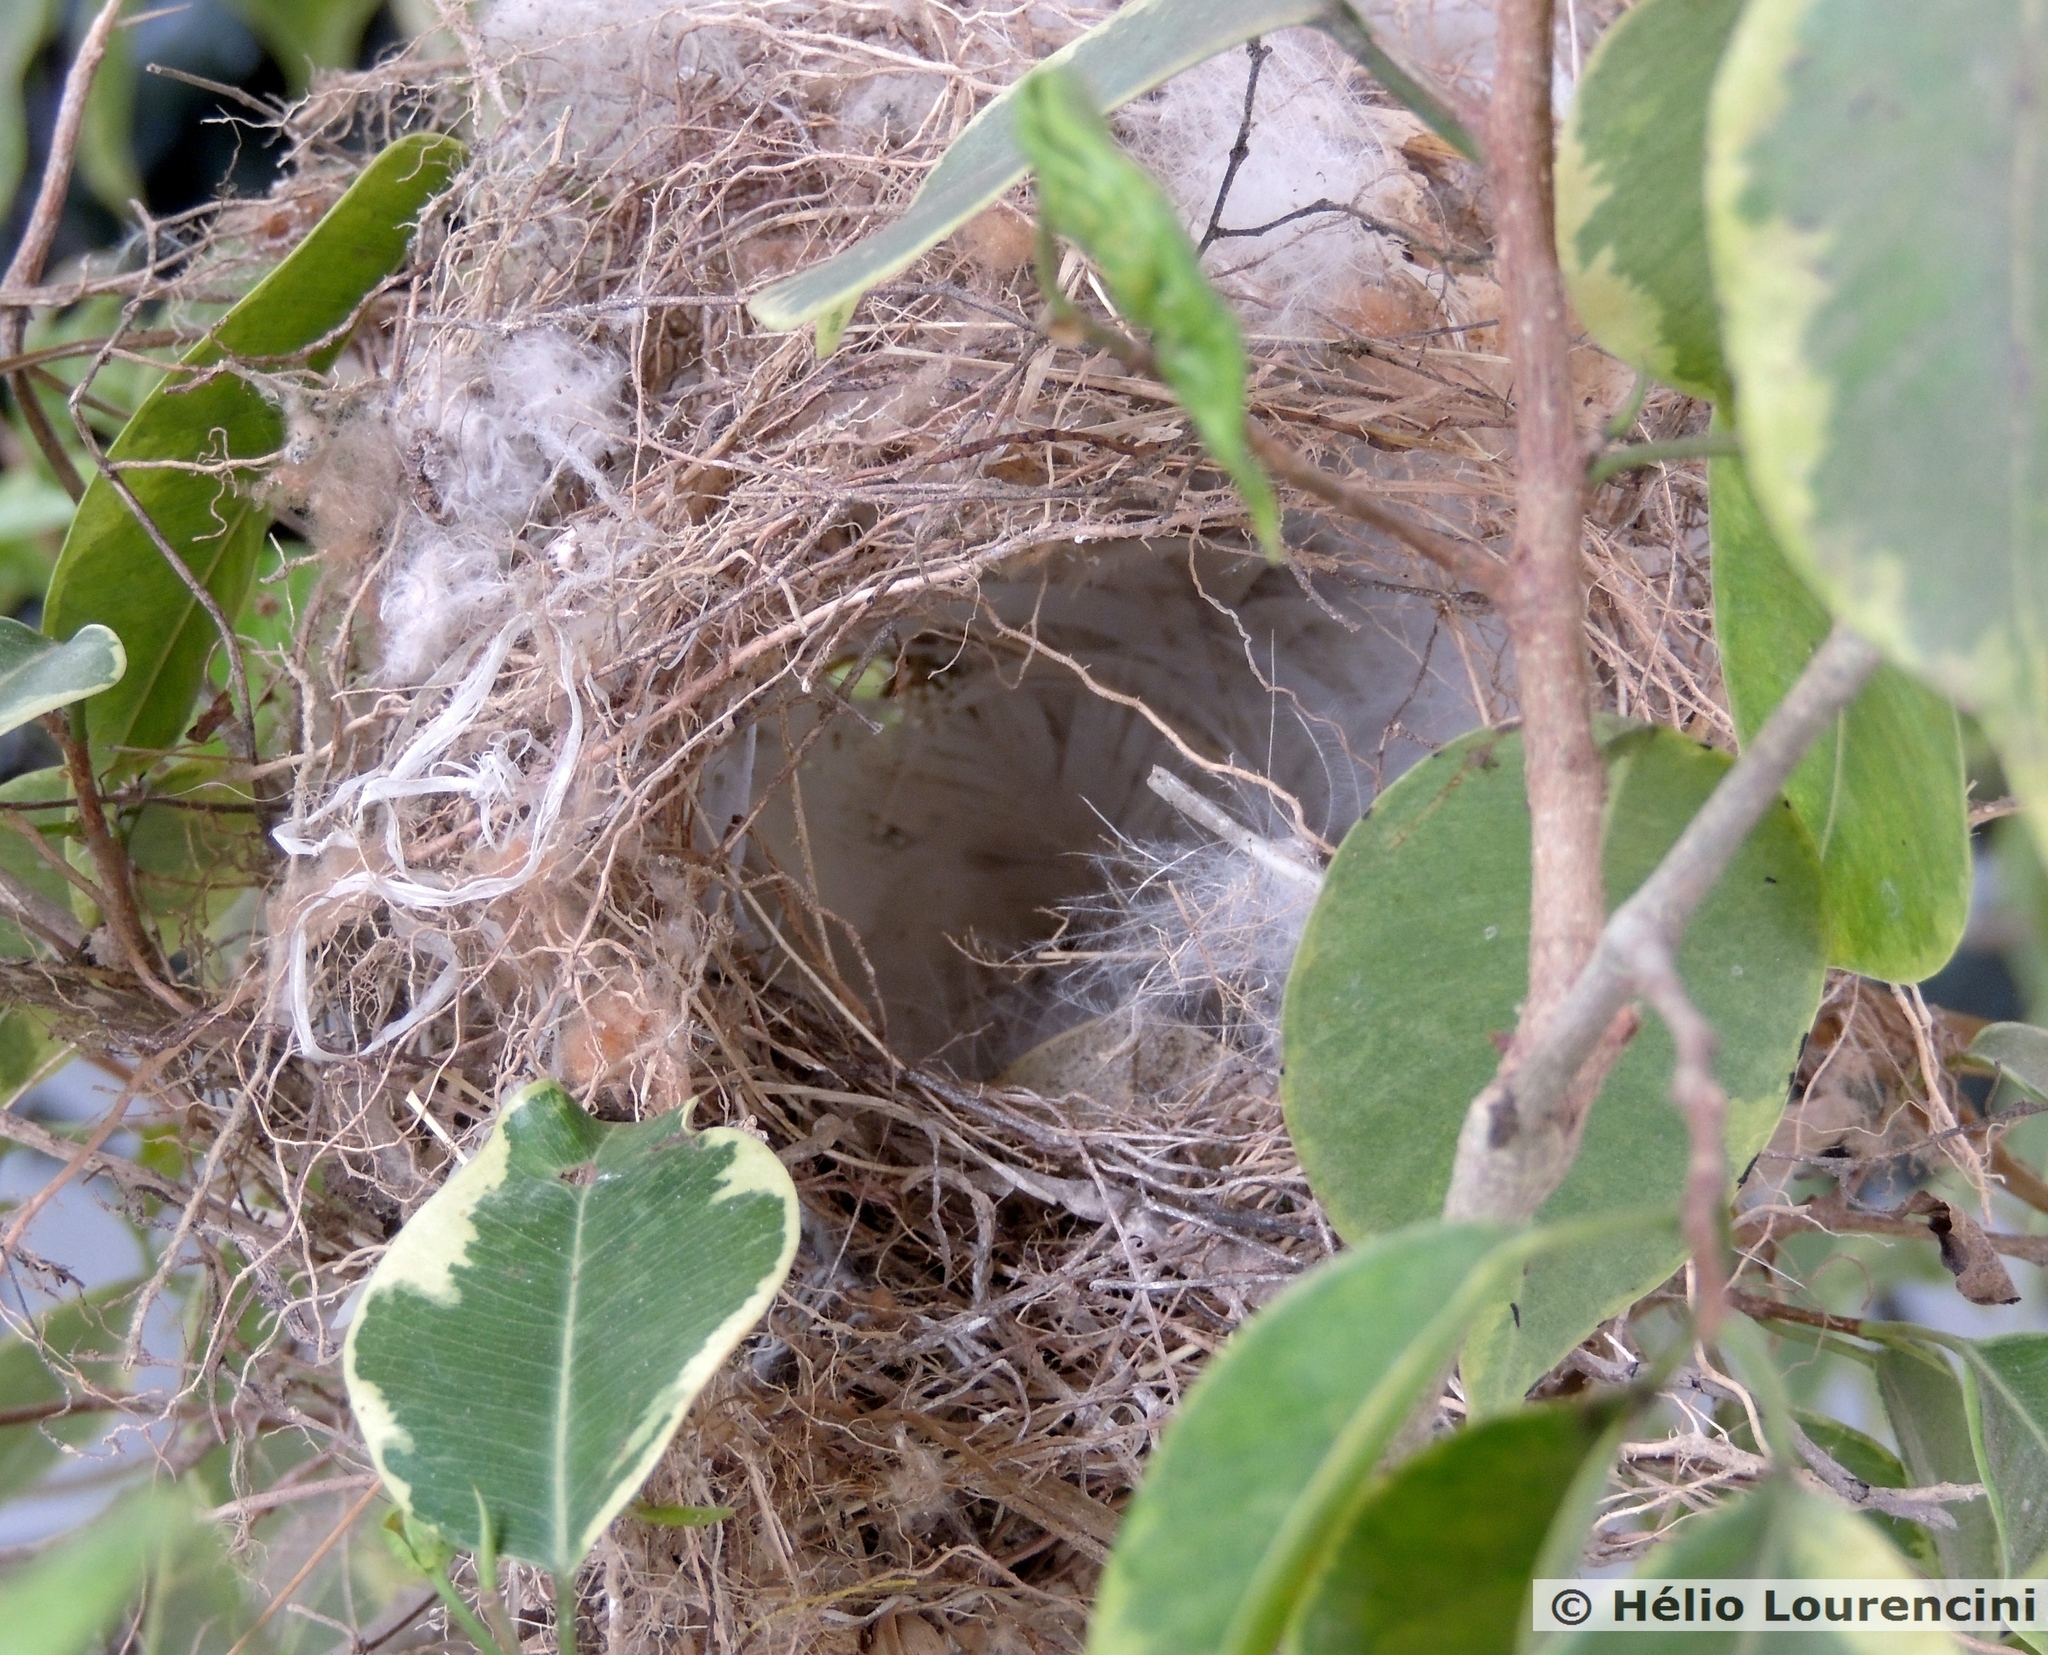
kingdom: Animalia
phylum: Chordata
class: Aves
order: Passeriformes
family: Tyrannidae
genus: Fluvicola
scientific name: Fluvicola nengeta
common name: Masked water tyrant
